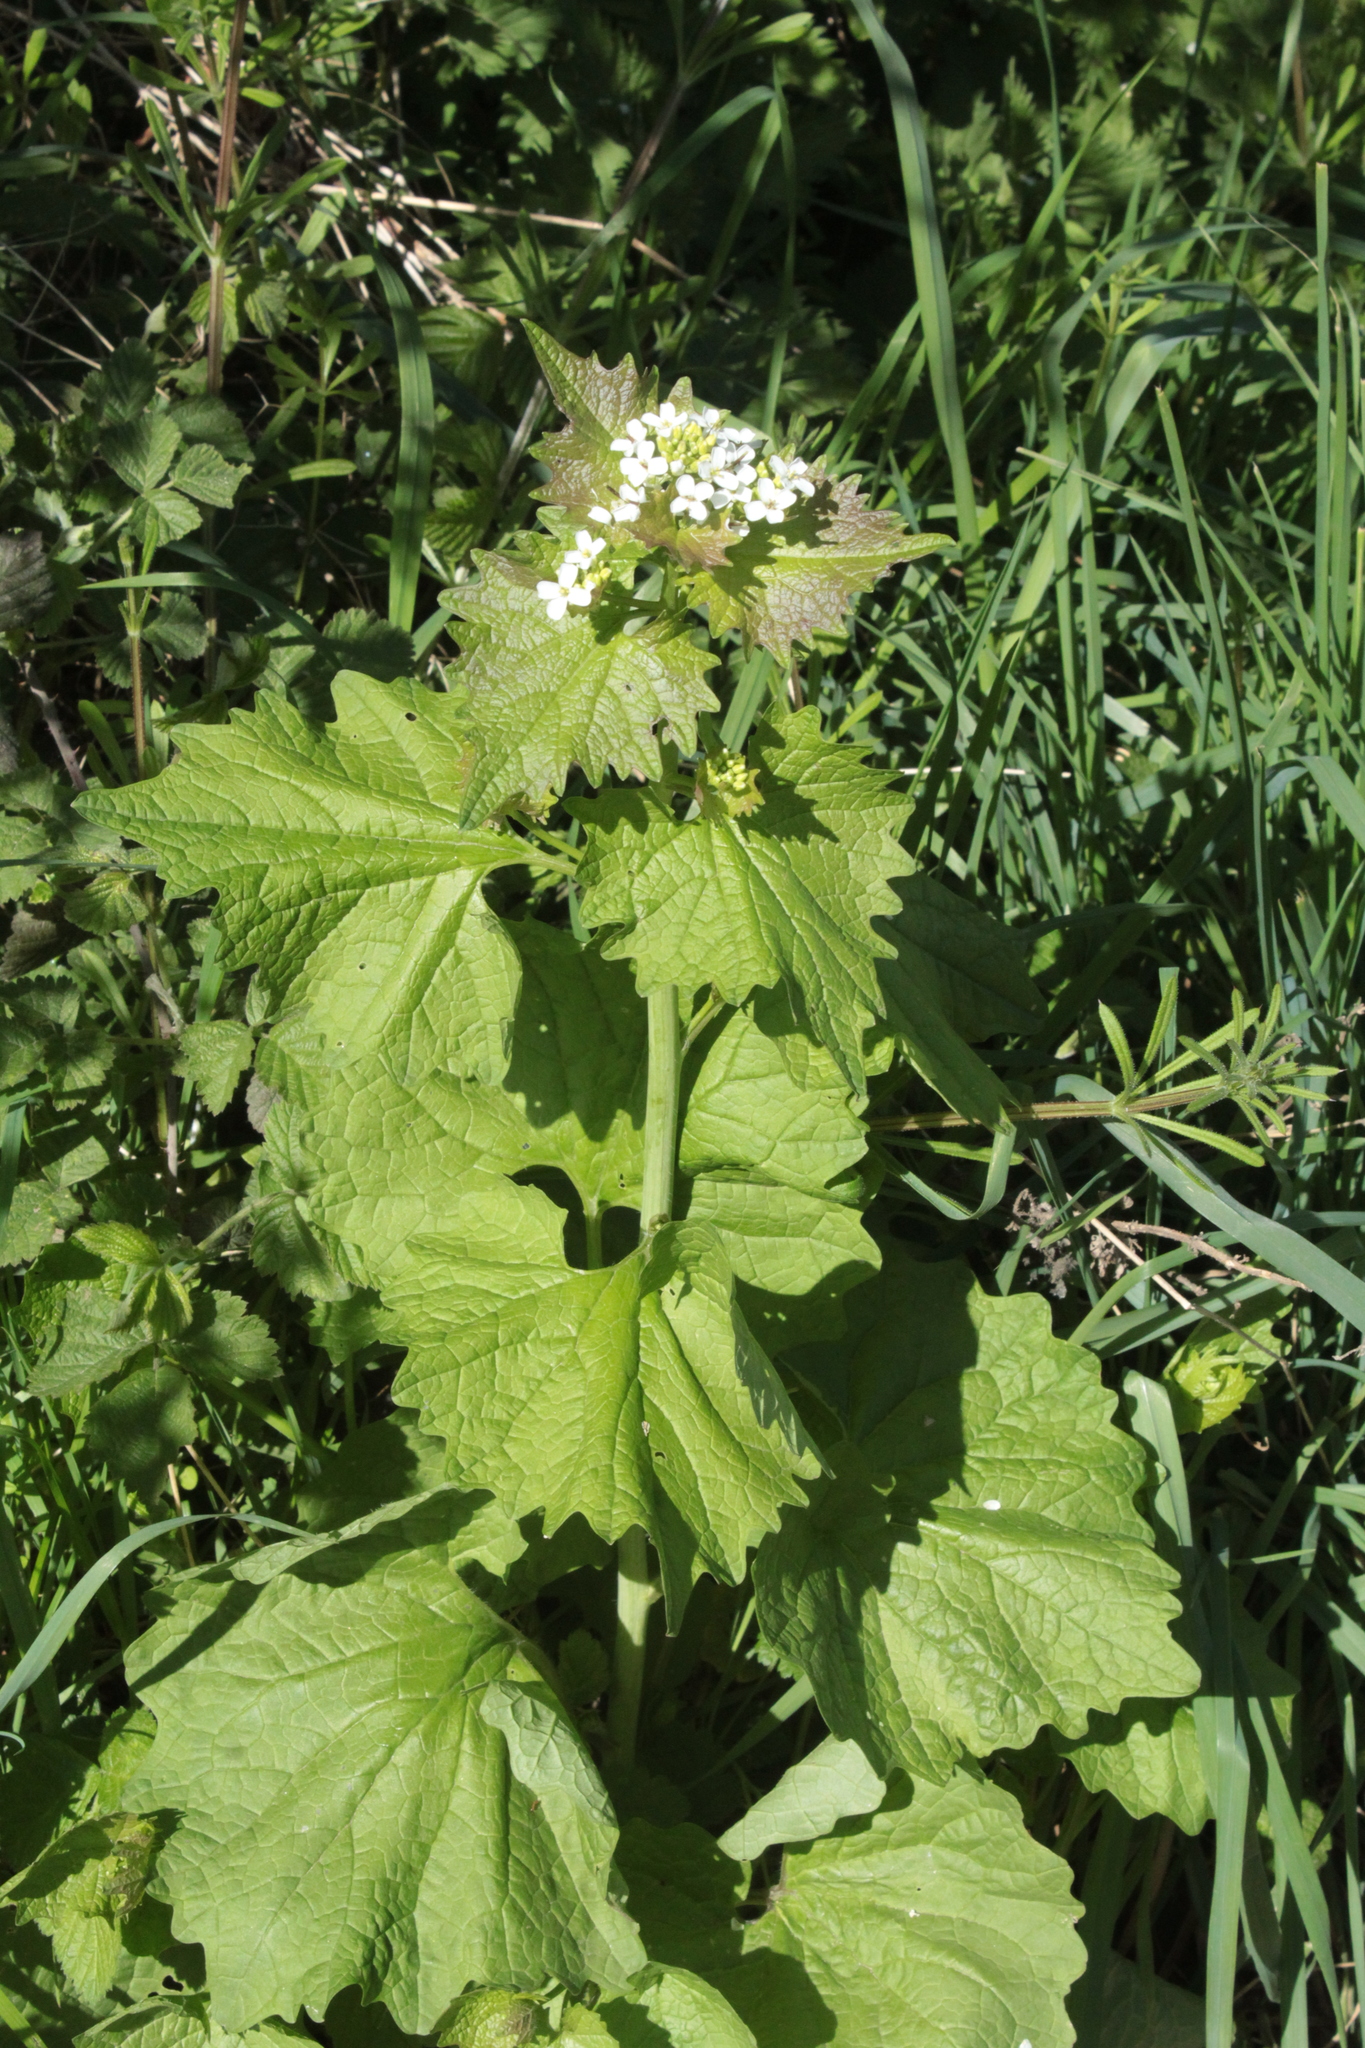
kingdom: Plantae
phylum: Tracheophyta
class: Magnoliopsida
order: Brassicales
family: Brassicaceae
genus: Alliaria
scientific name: Alliaria petiolata
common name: Garlic mustard
